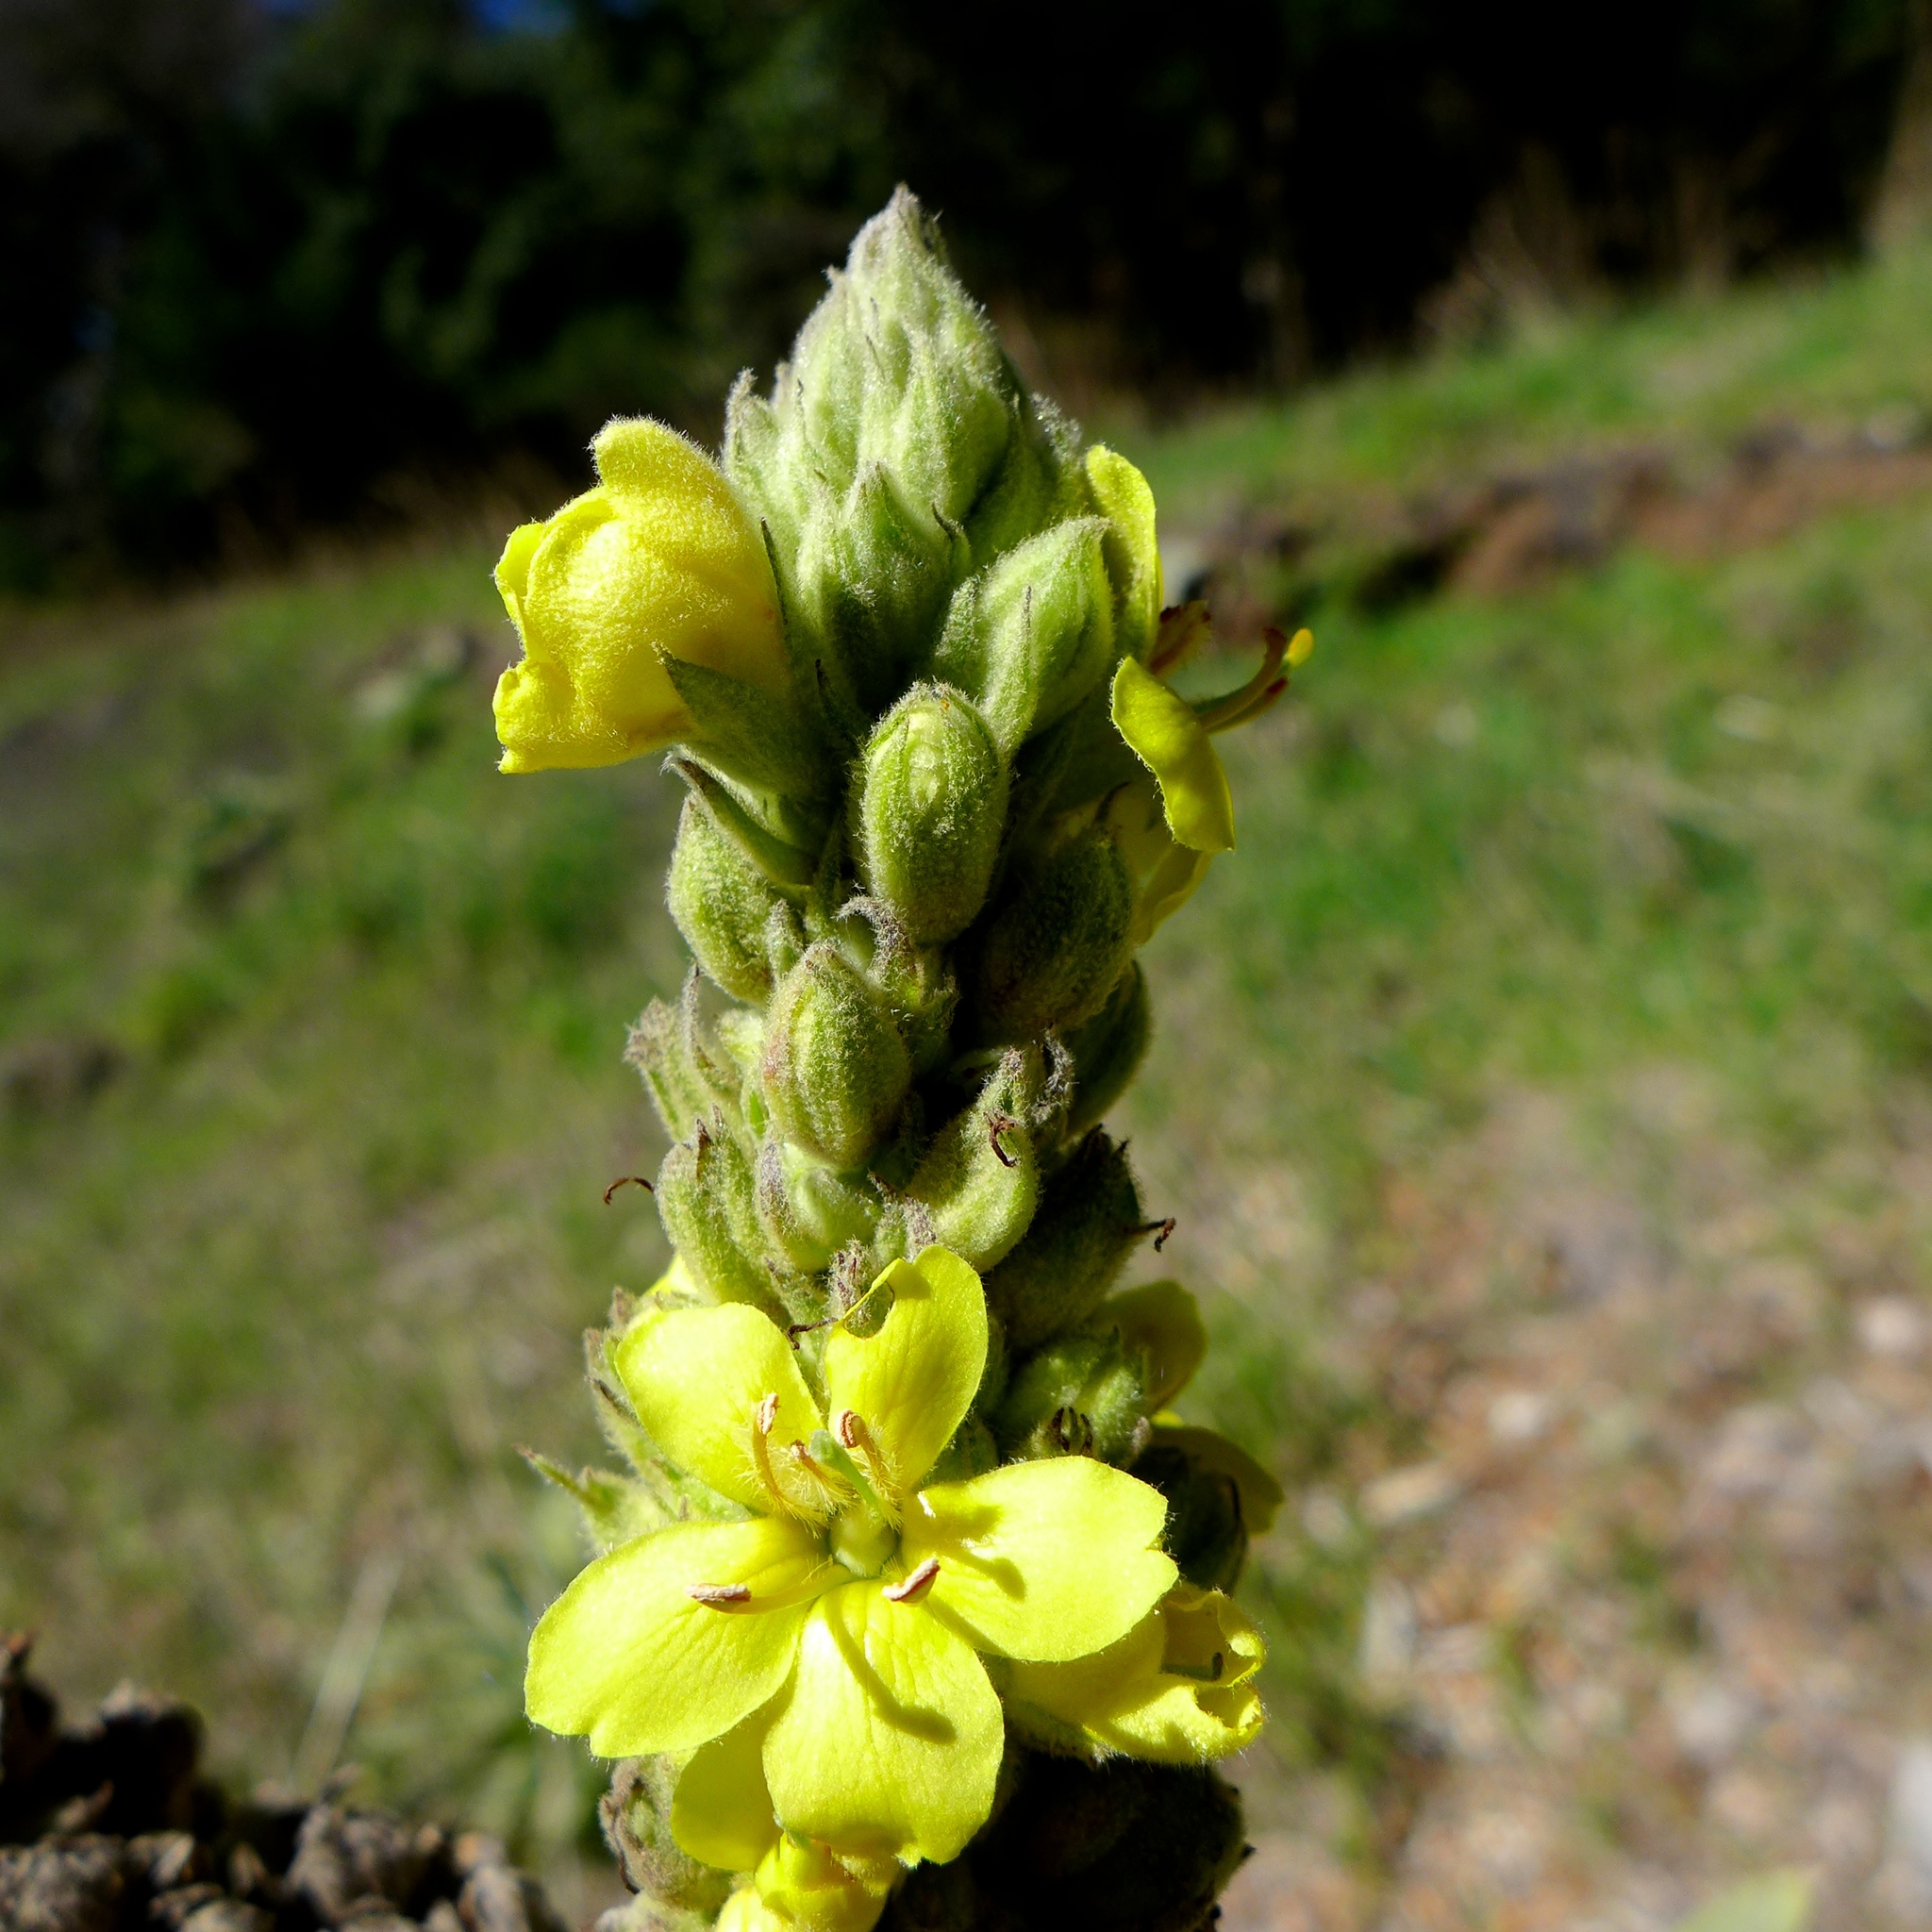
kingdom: Plantae
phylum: Tracheophyta
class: Magnoliopsida
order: Lamiales
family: Scrophulariaceae
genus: Verbascum
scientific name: Verbascum thapsus
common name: Common mullein
